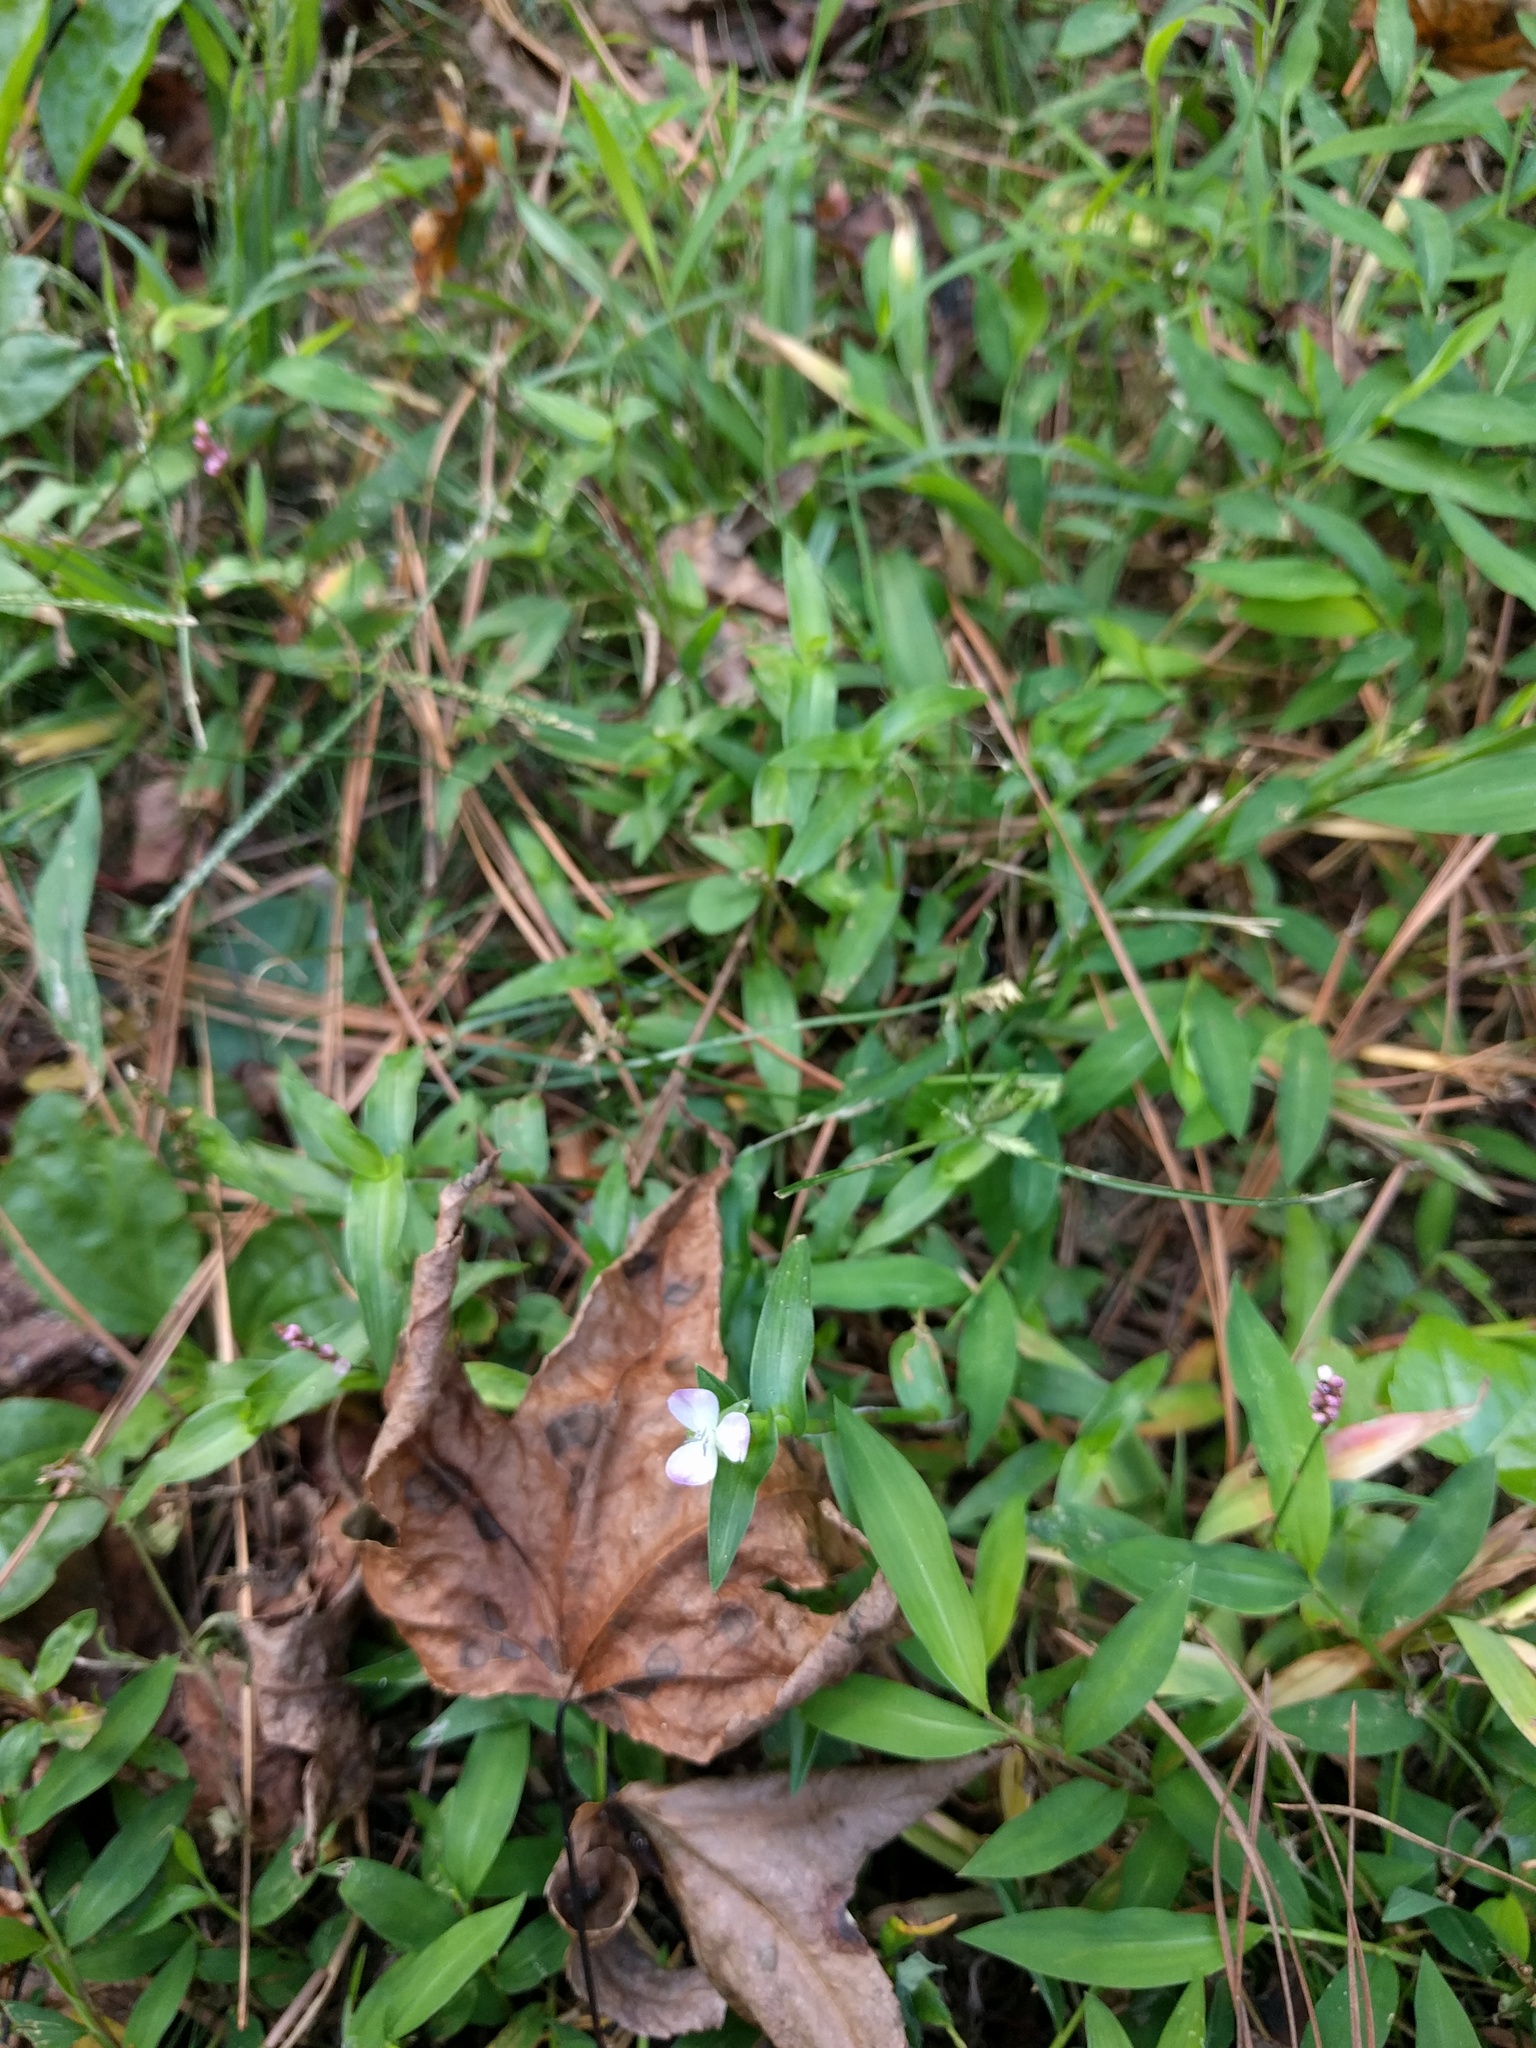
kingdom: Plantae
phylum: Tracheophyta
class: Liliopsida
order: Commelinales
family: Commelinaceae
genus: Murdannia
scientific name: Murdannia keisak
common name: Wartremoving herb
